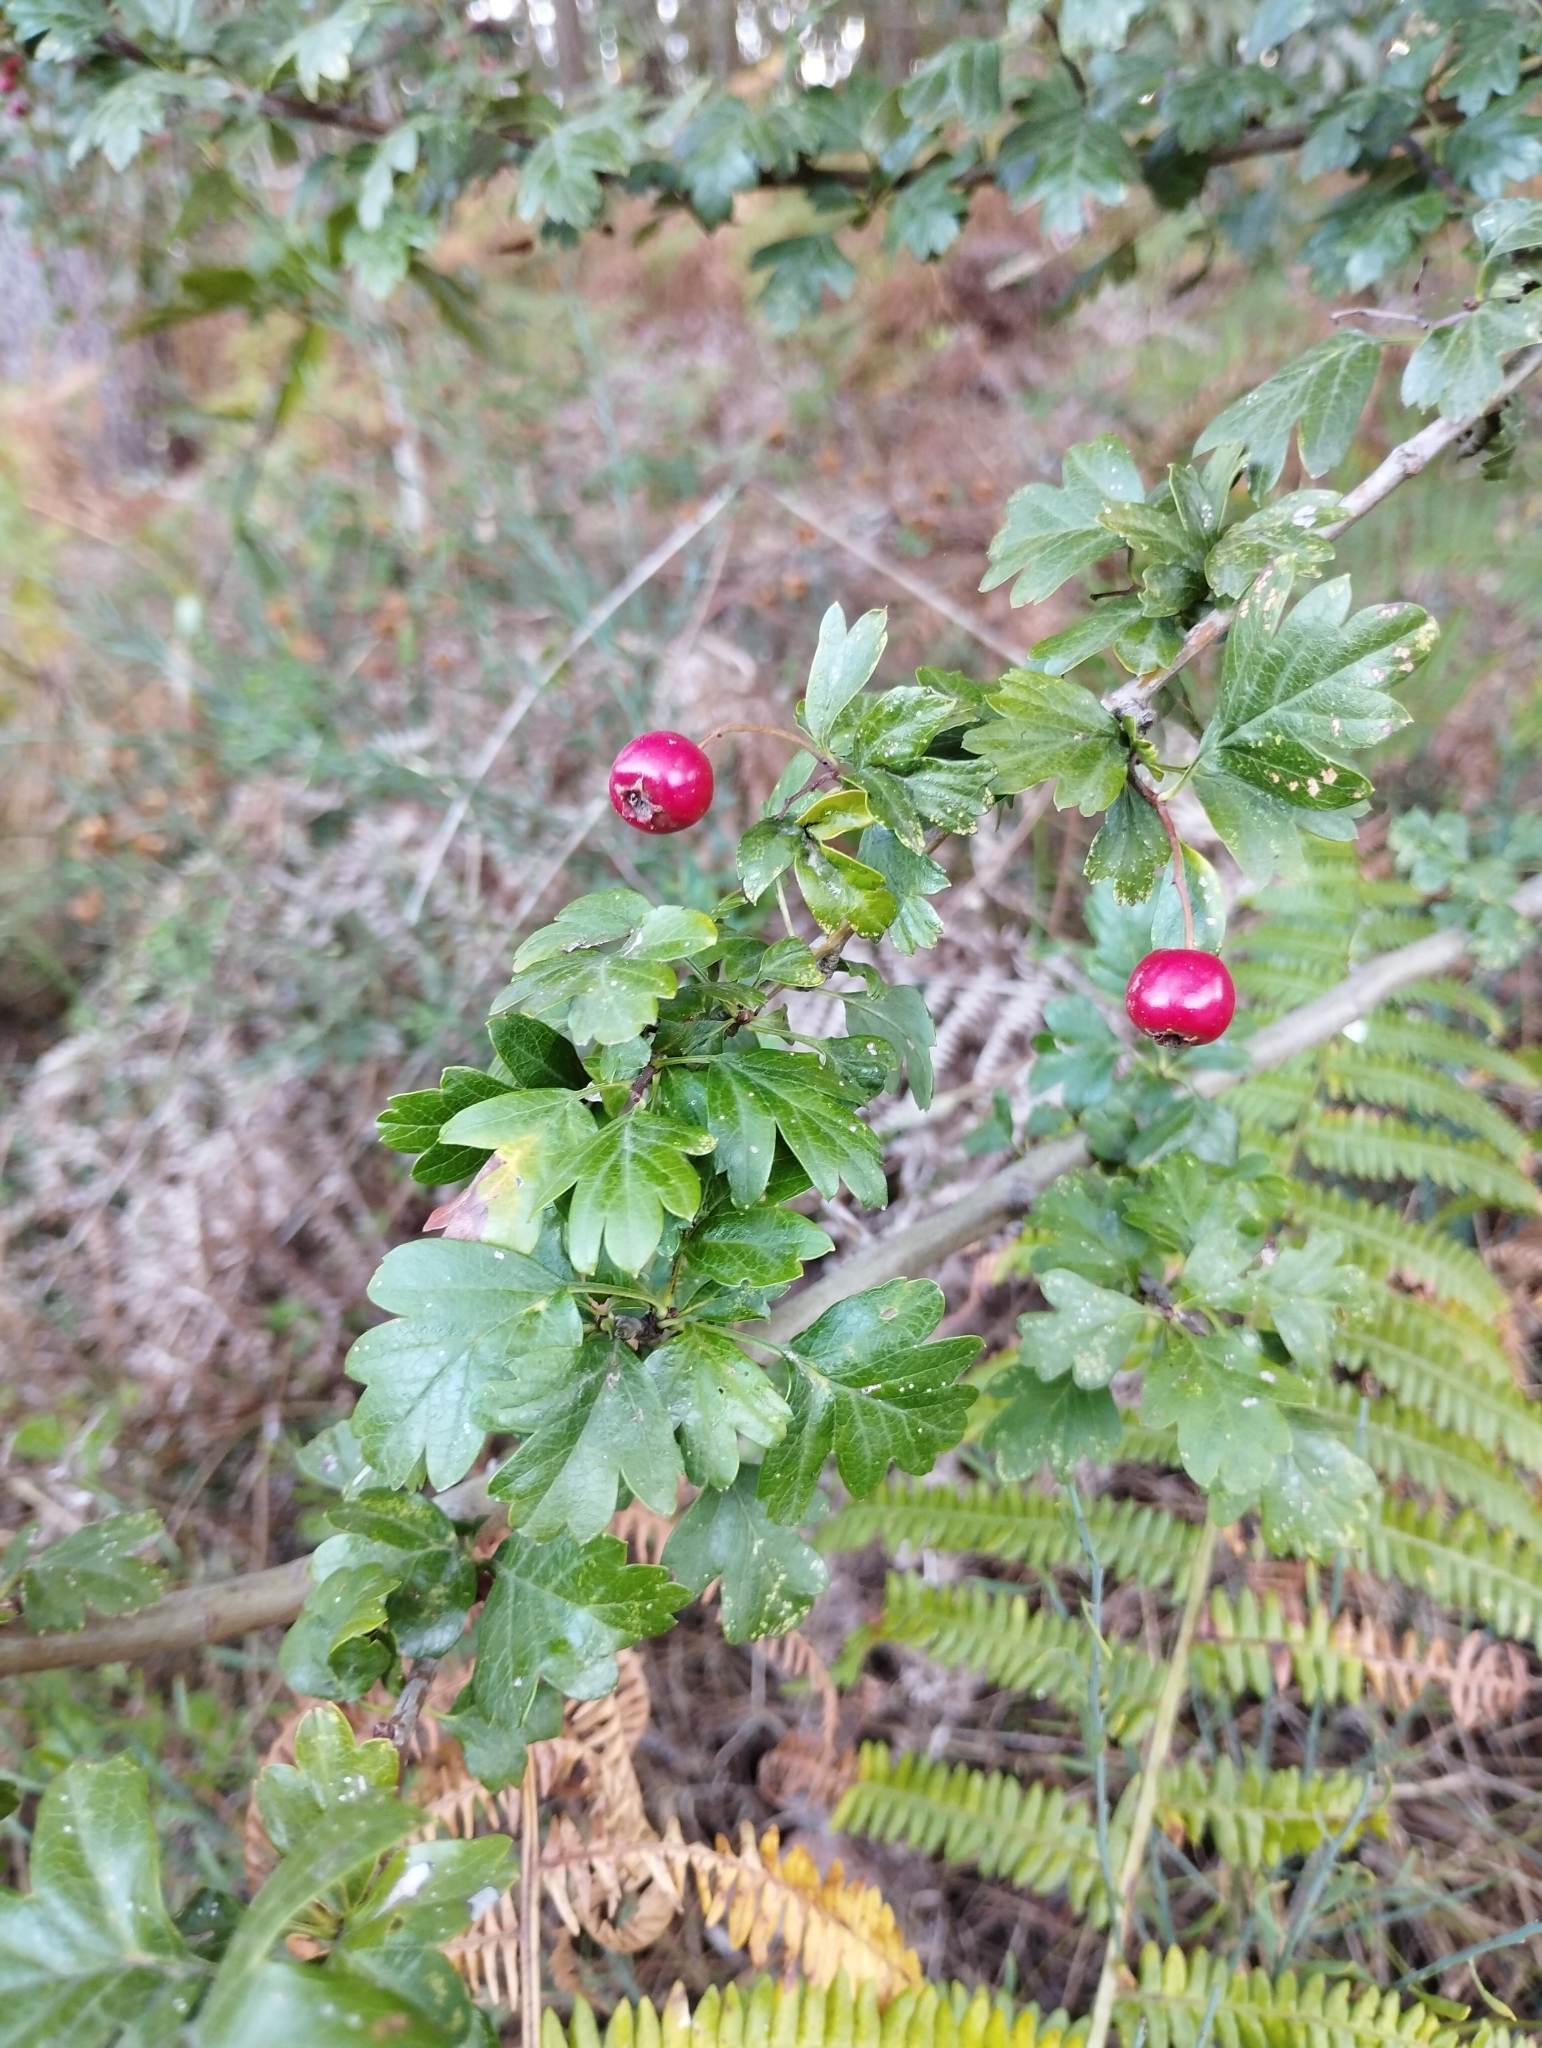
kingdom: Plantae
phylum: Tracheophyta
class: Magnoliopsida
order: Rosales
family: Rosaceae
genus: Crataegus
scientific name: Crataegus monogyna
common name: Hawthorn
